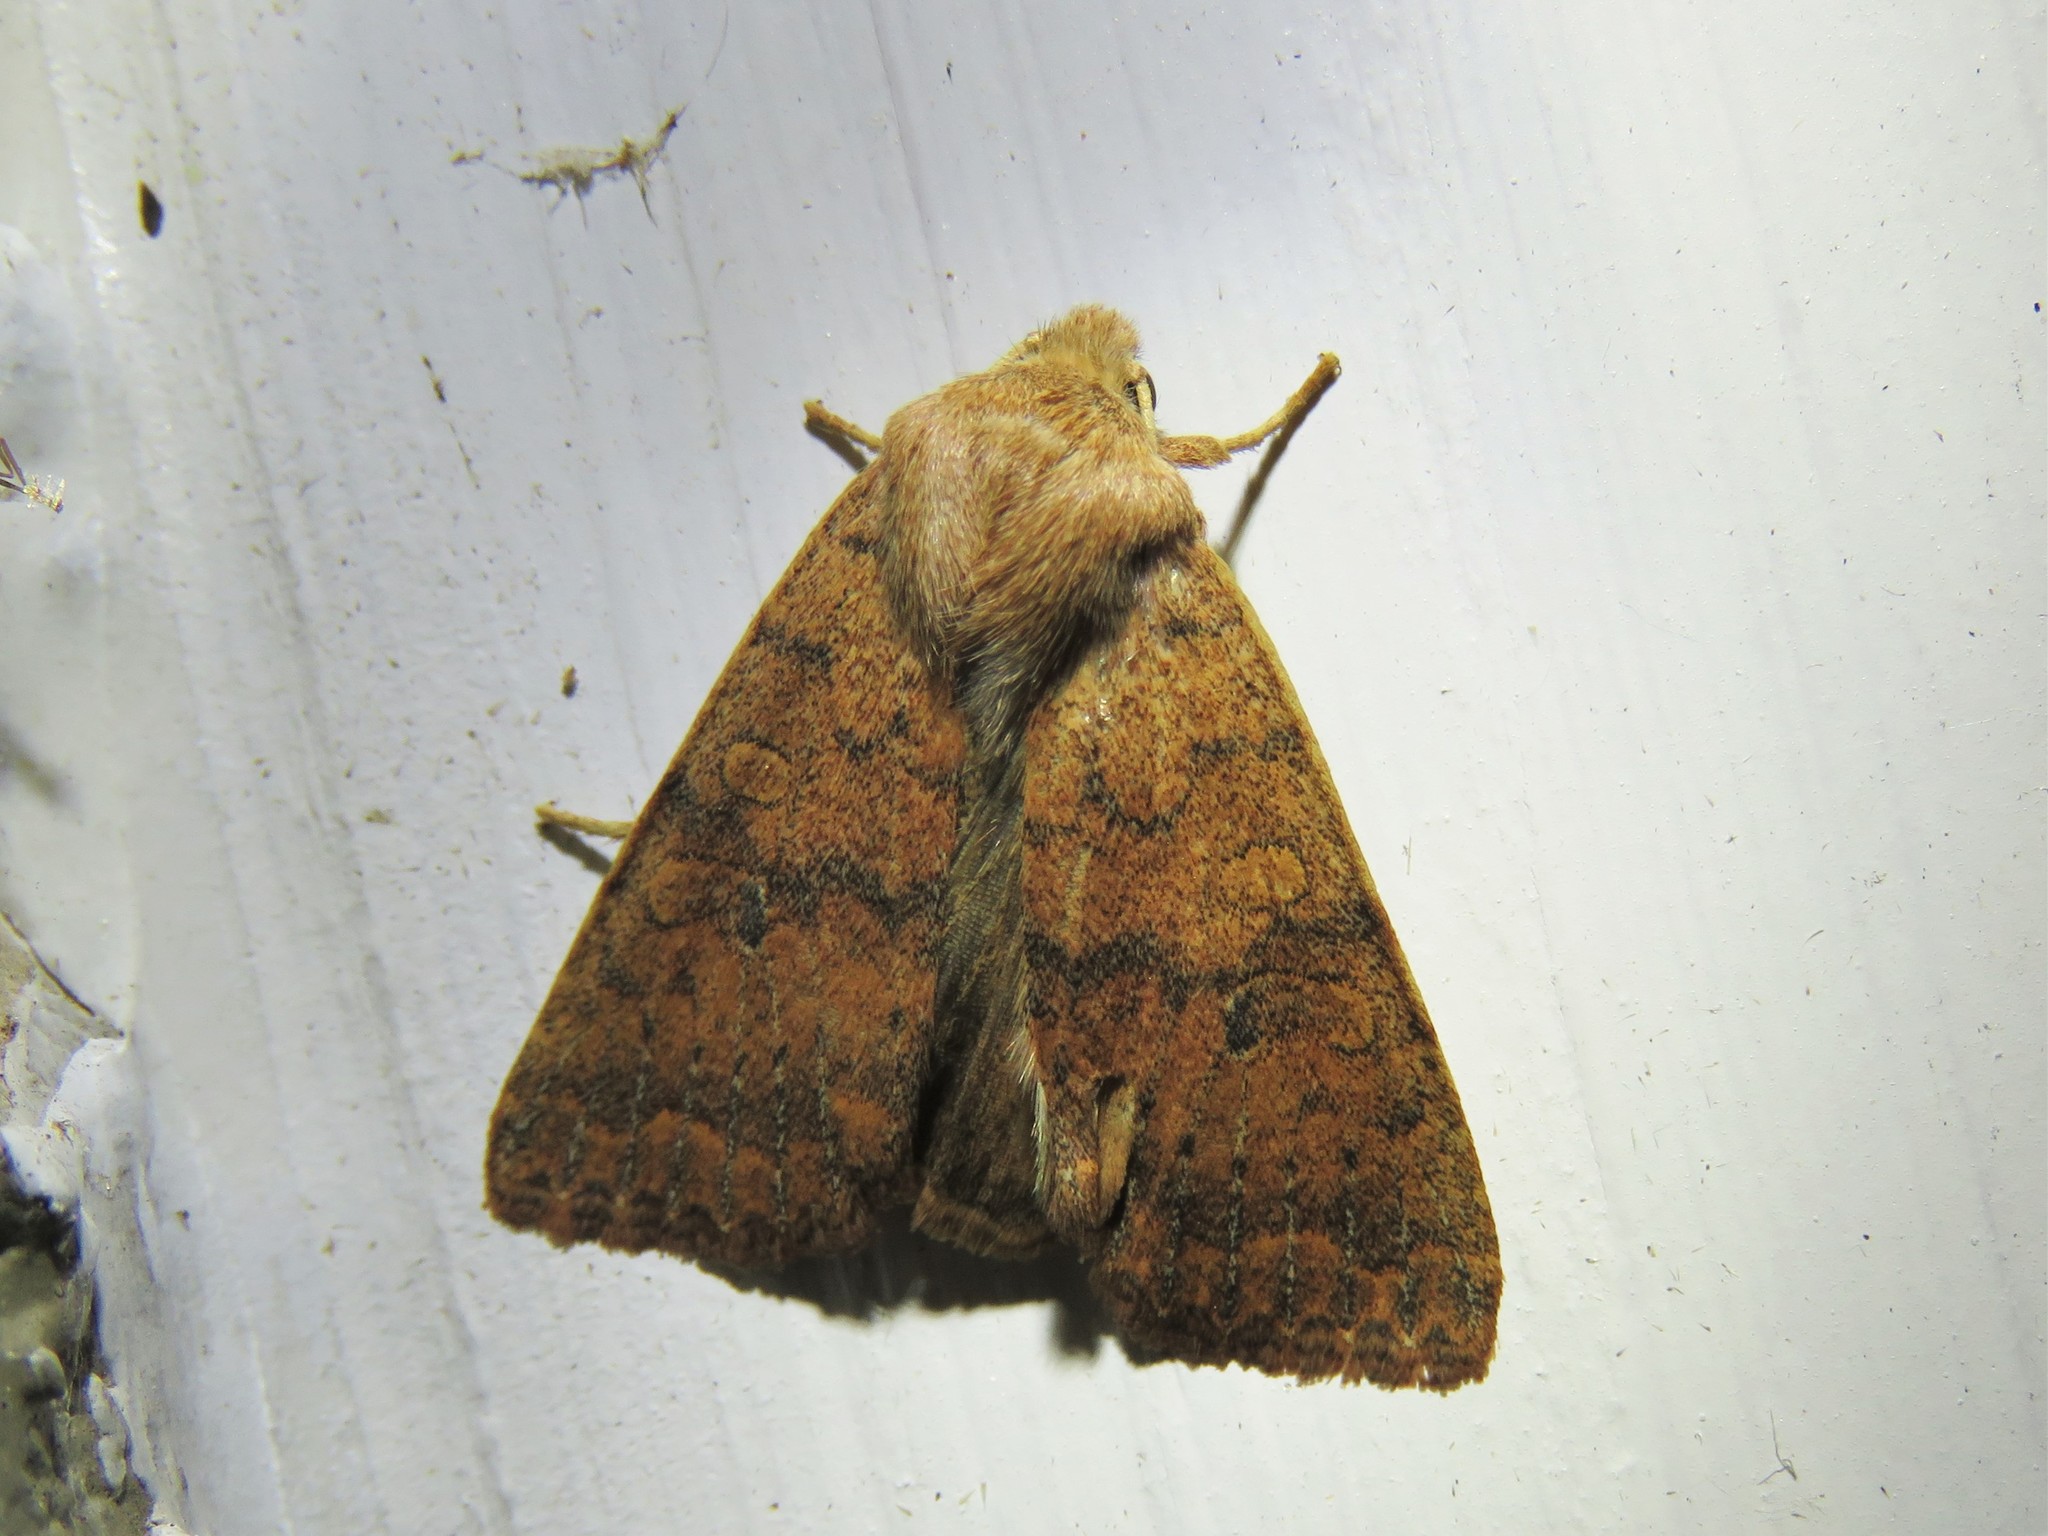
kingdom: Animalia
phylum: Arthropoda
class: Insecta
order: Lepidoptera
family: Noctuidae
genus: Agrochola
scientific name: Agrochola bicolorago
